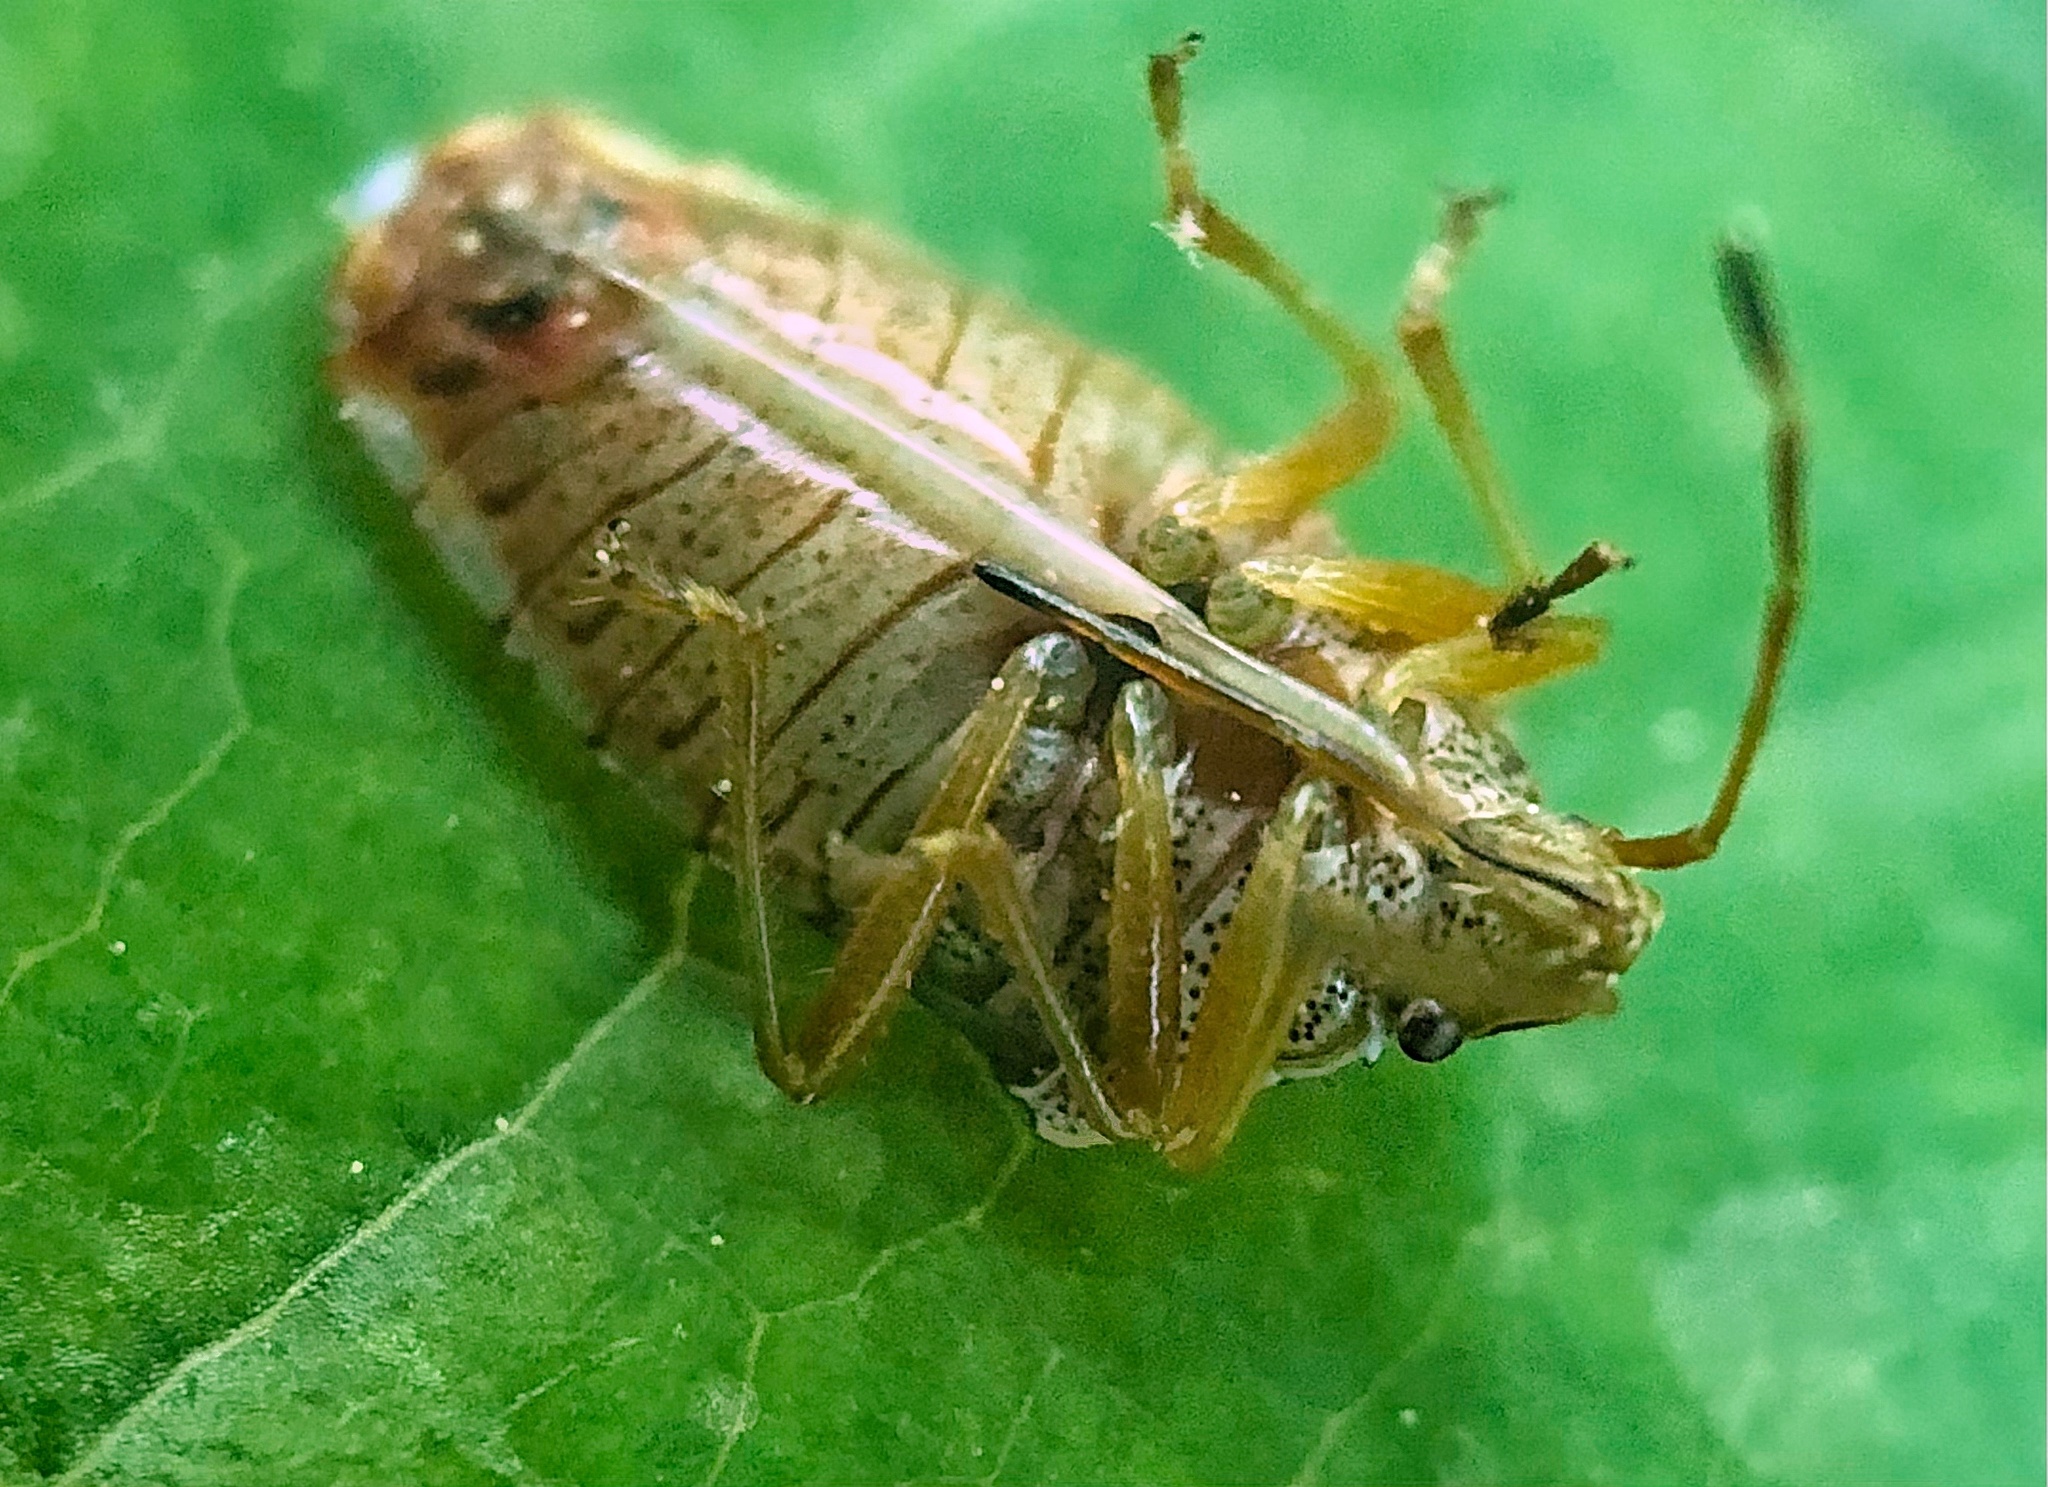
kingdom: Animalia
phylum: Arthropoda
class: Insecta
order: Hemiptera
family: Acanthosomatidae
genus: Elasmucha
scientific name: Elasmucha lateralis
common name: Shield bug
